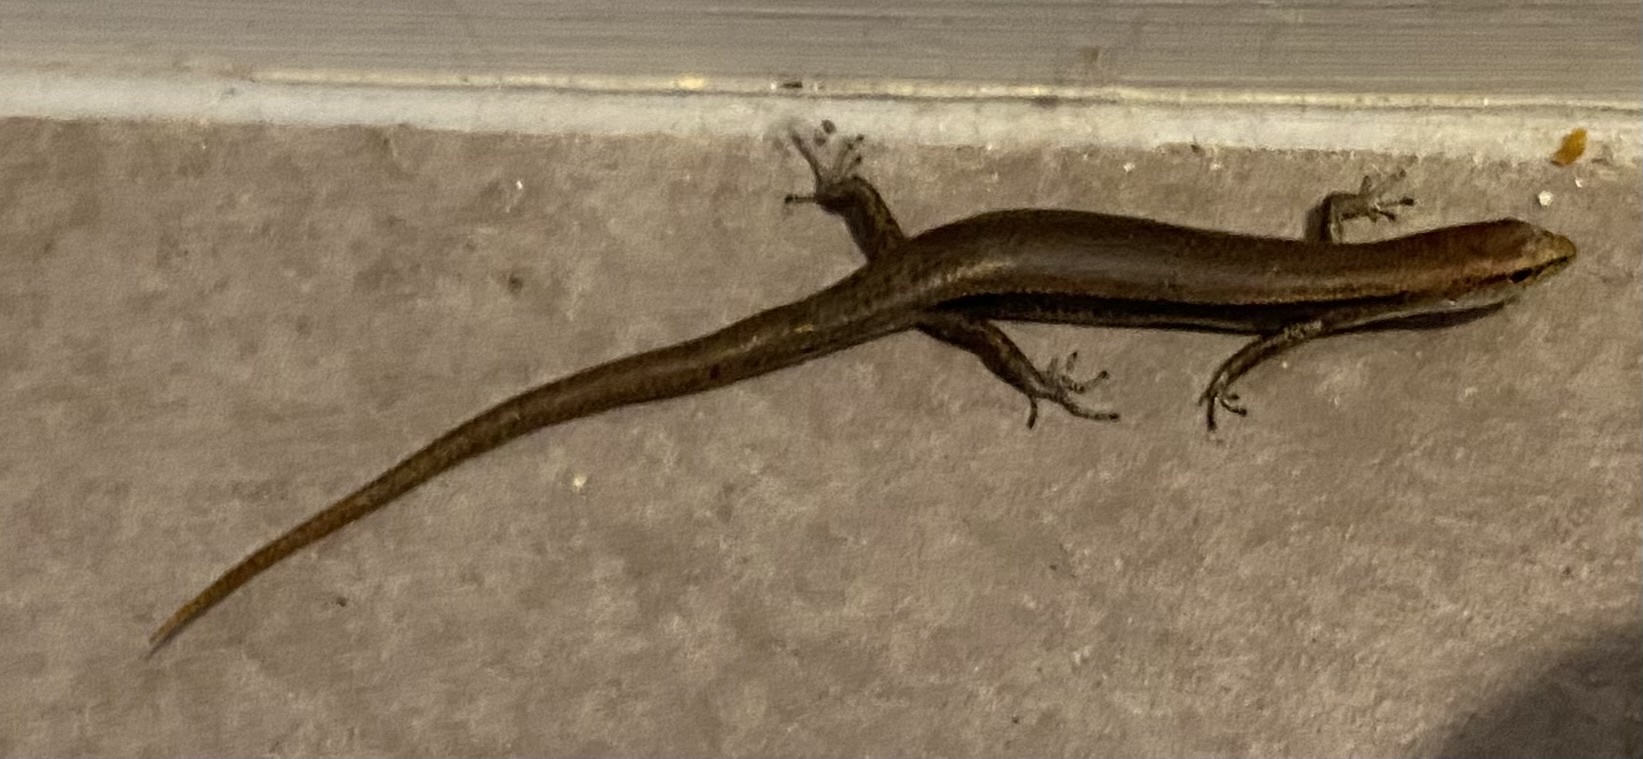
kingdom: Animalia
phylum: Chordata
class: Squamata
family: Scincidae
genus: Lampropholis
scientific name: Lampropholis delicata
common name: Plague skink
